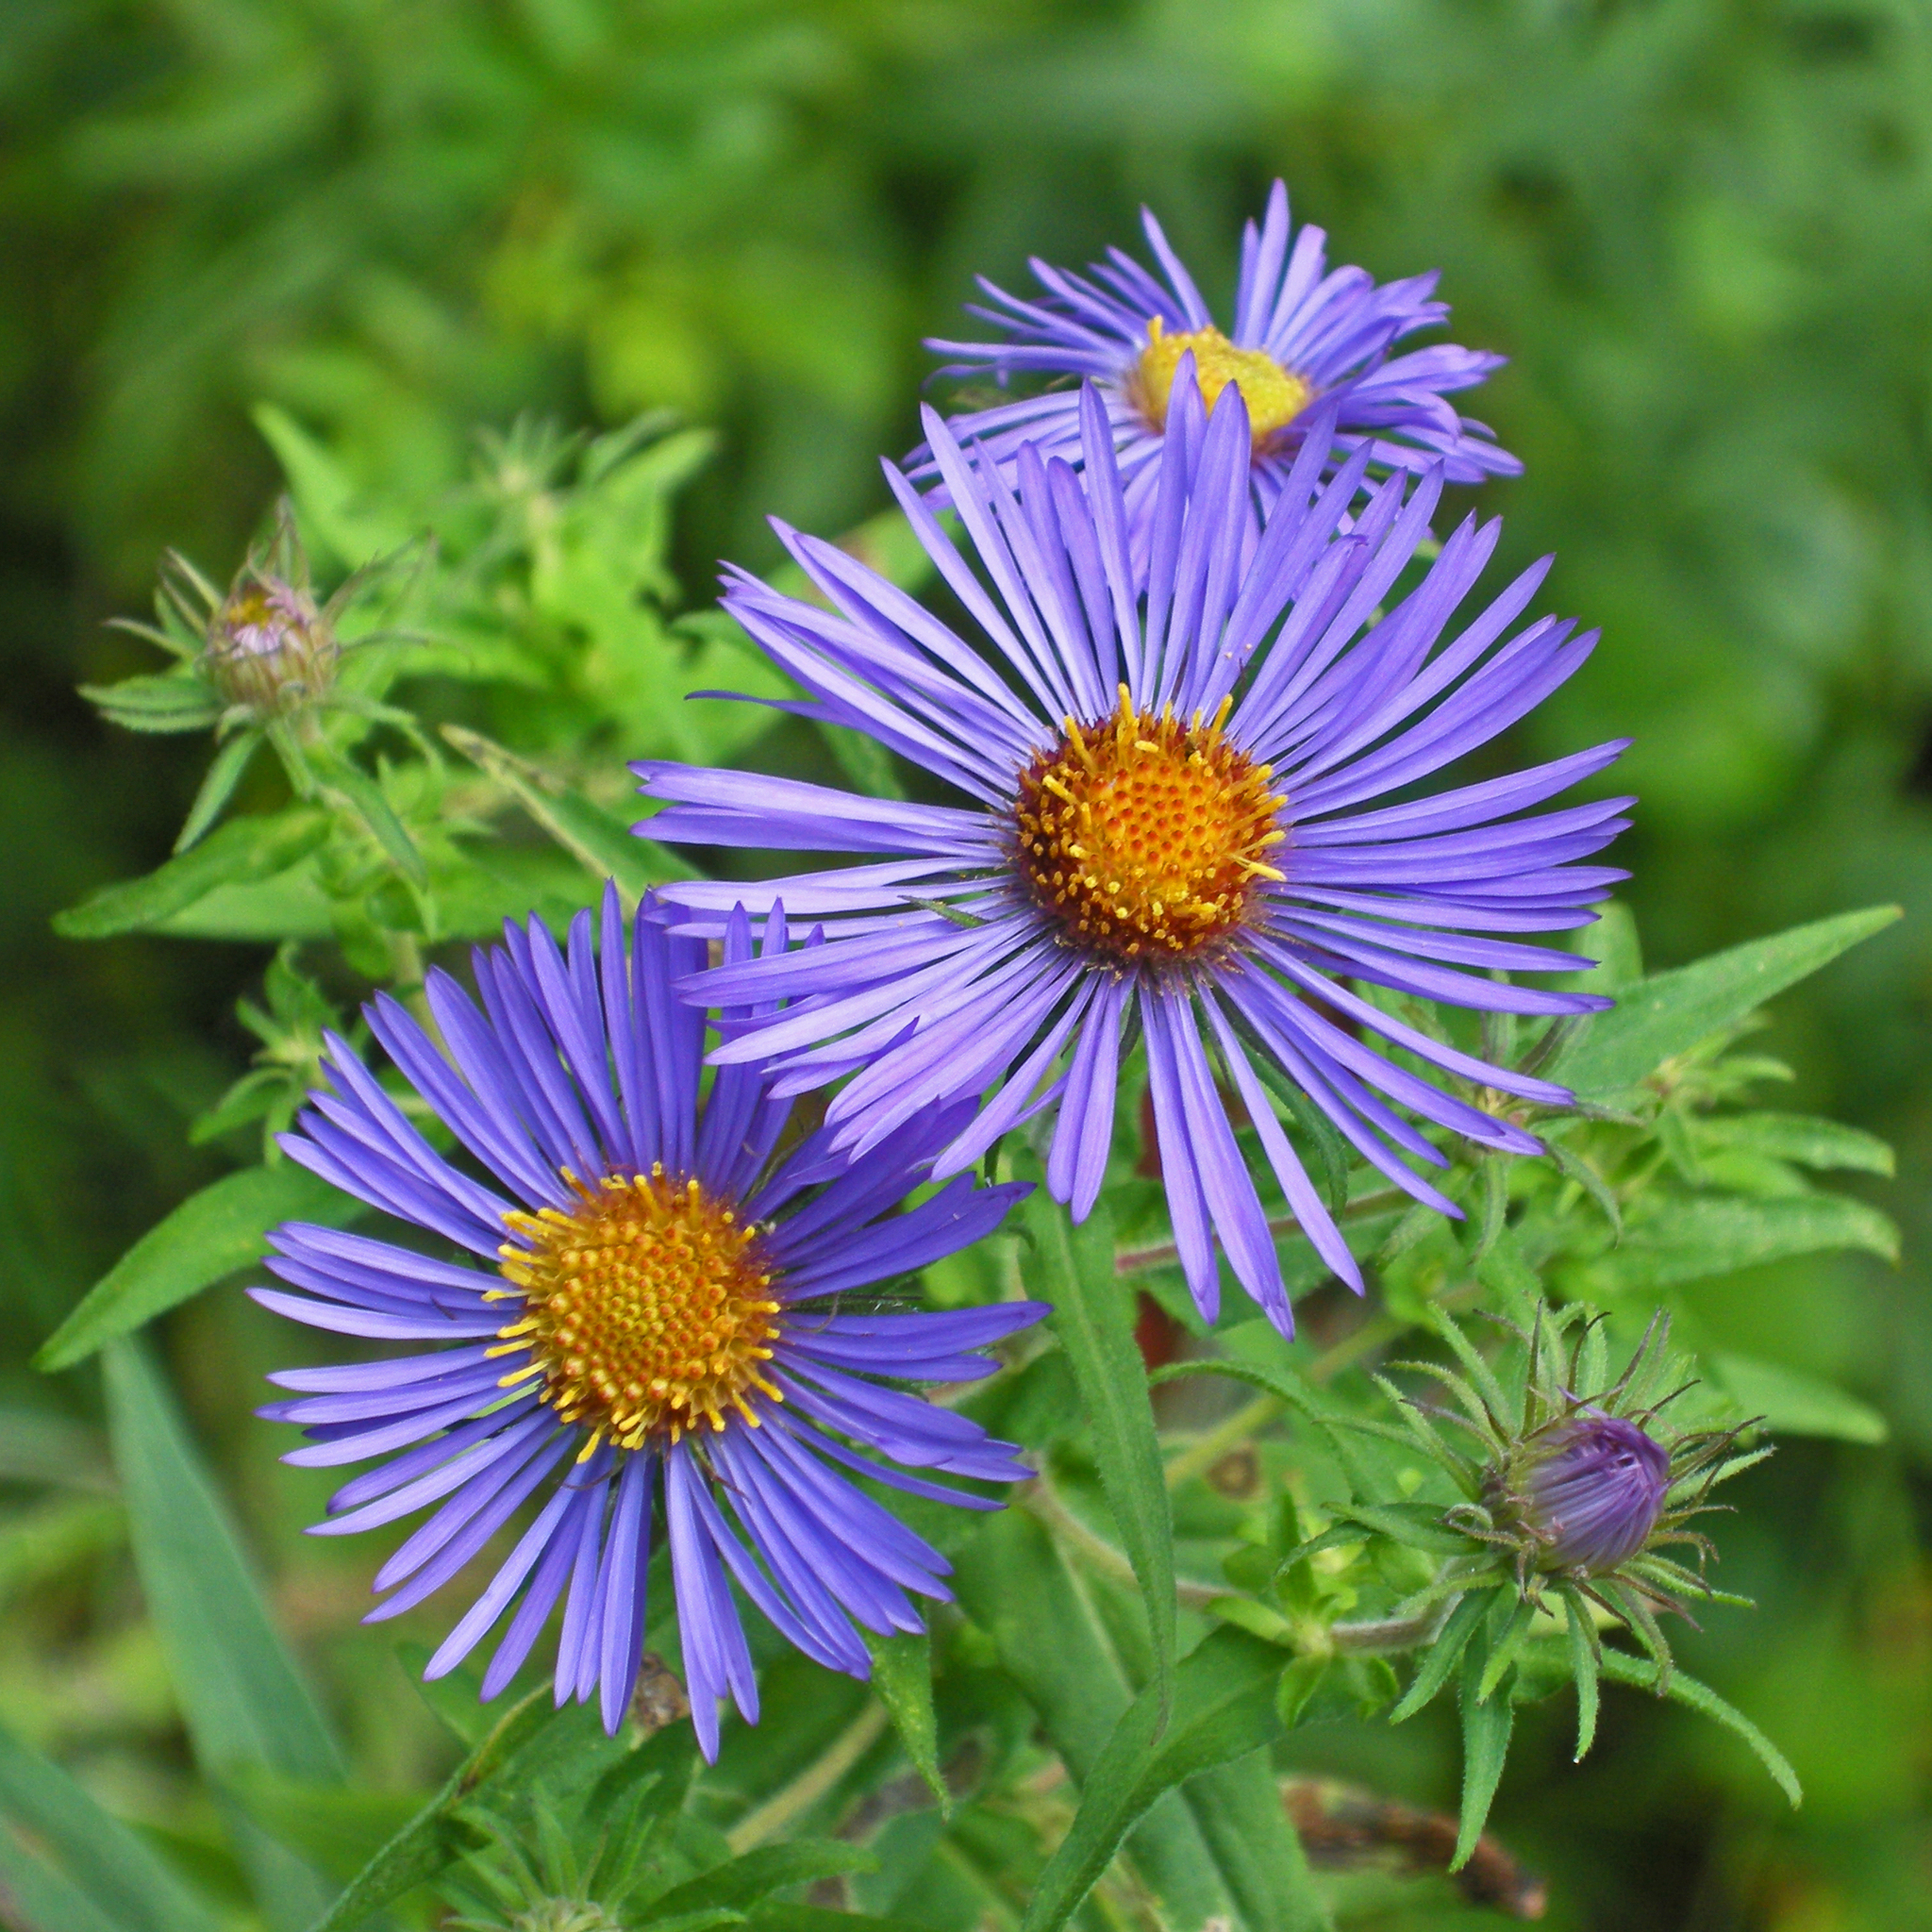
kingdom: Plantae
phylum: Tracheophyta
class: Magnoliopsida
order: Asterales
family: Asteraceae
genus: Symphyotrichum
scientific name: Symphyotrichum novae-angliae
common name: Michaelmas daisy
